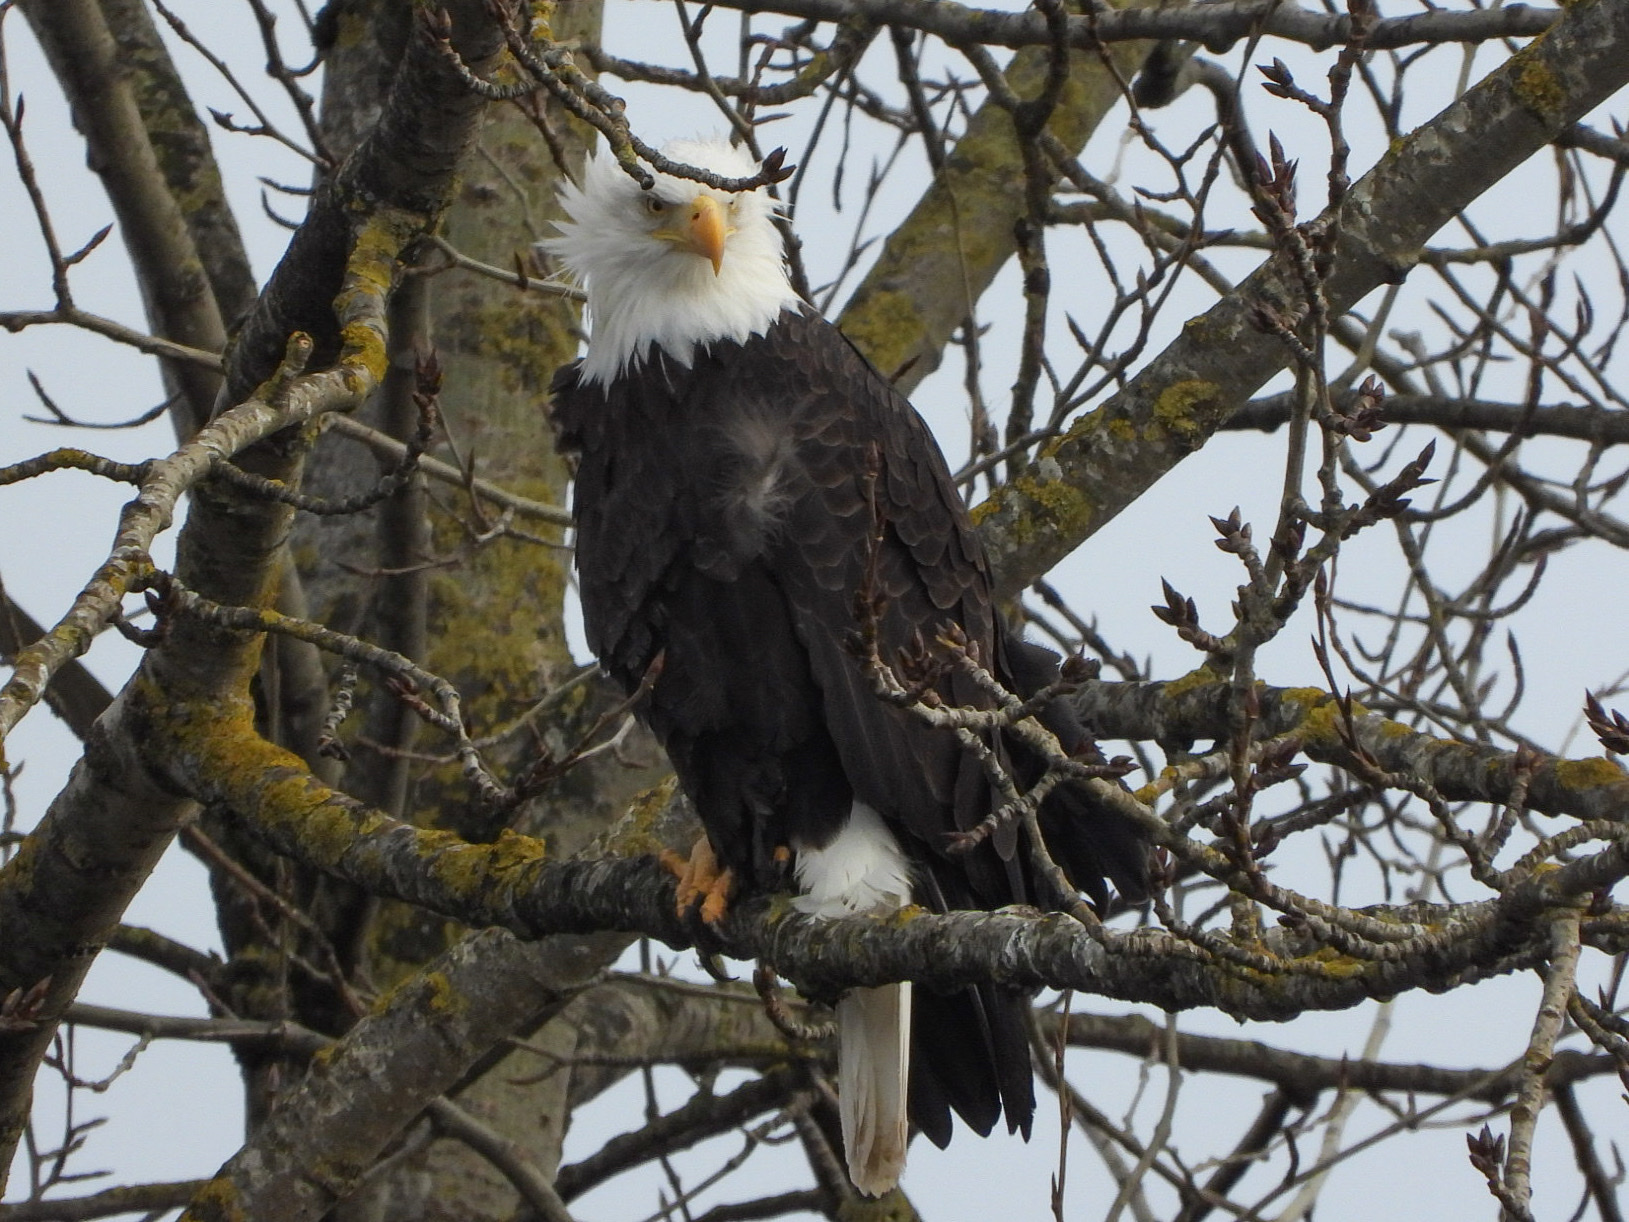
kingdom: Animalia
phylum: Chordata
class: Aves
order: Accipitriformes
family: Accipitridae
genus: Haliaeetus
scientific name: Haliaeetus leucocephalus
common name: Bald eagle
